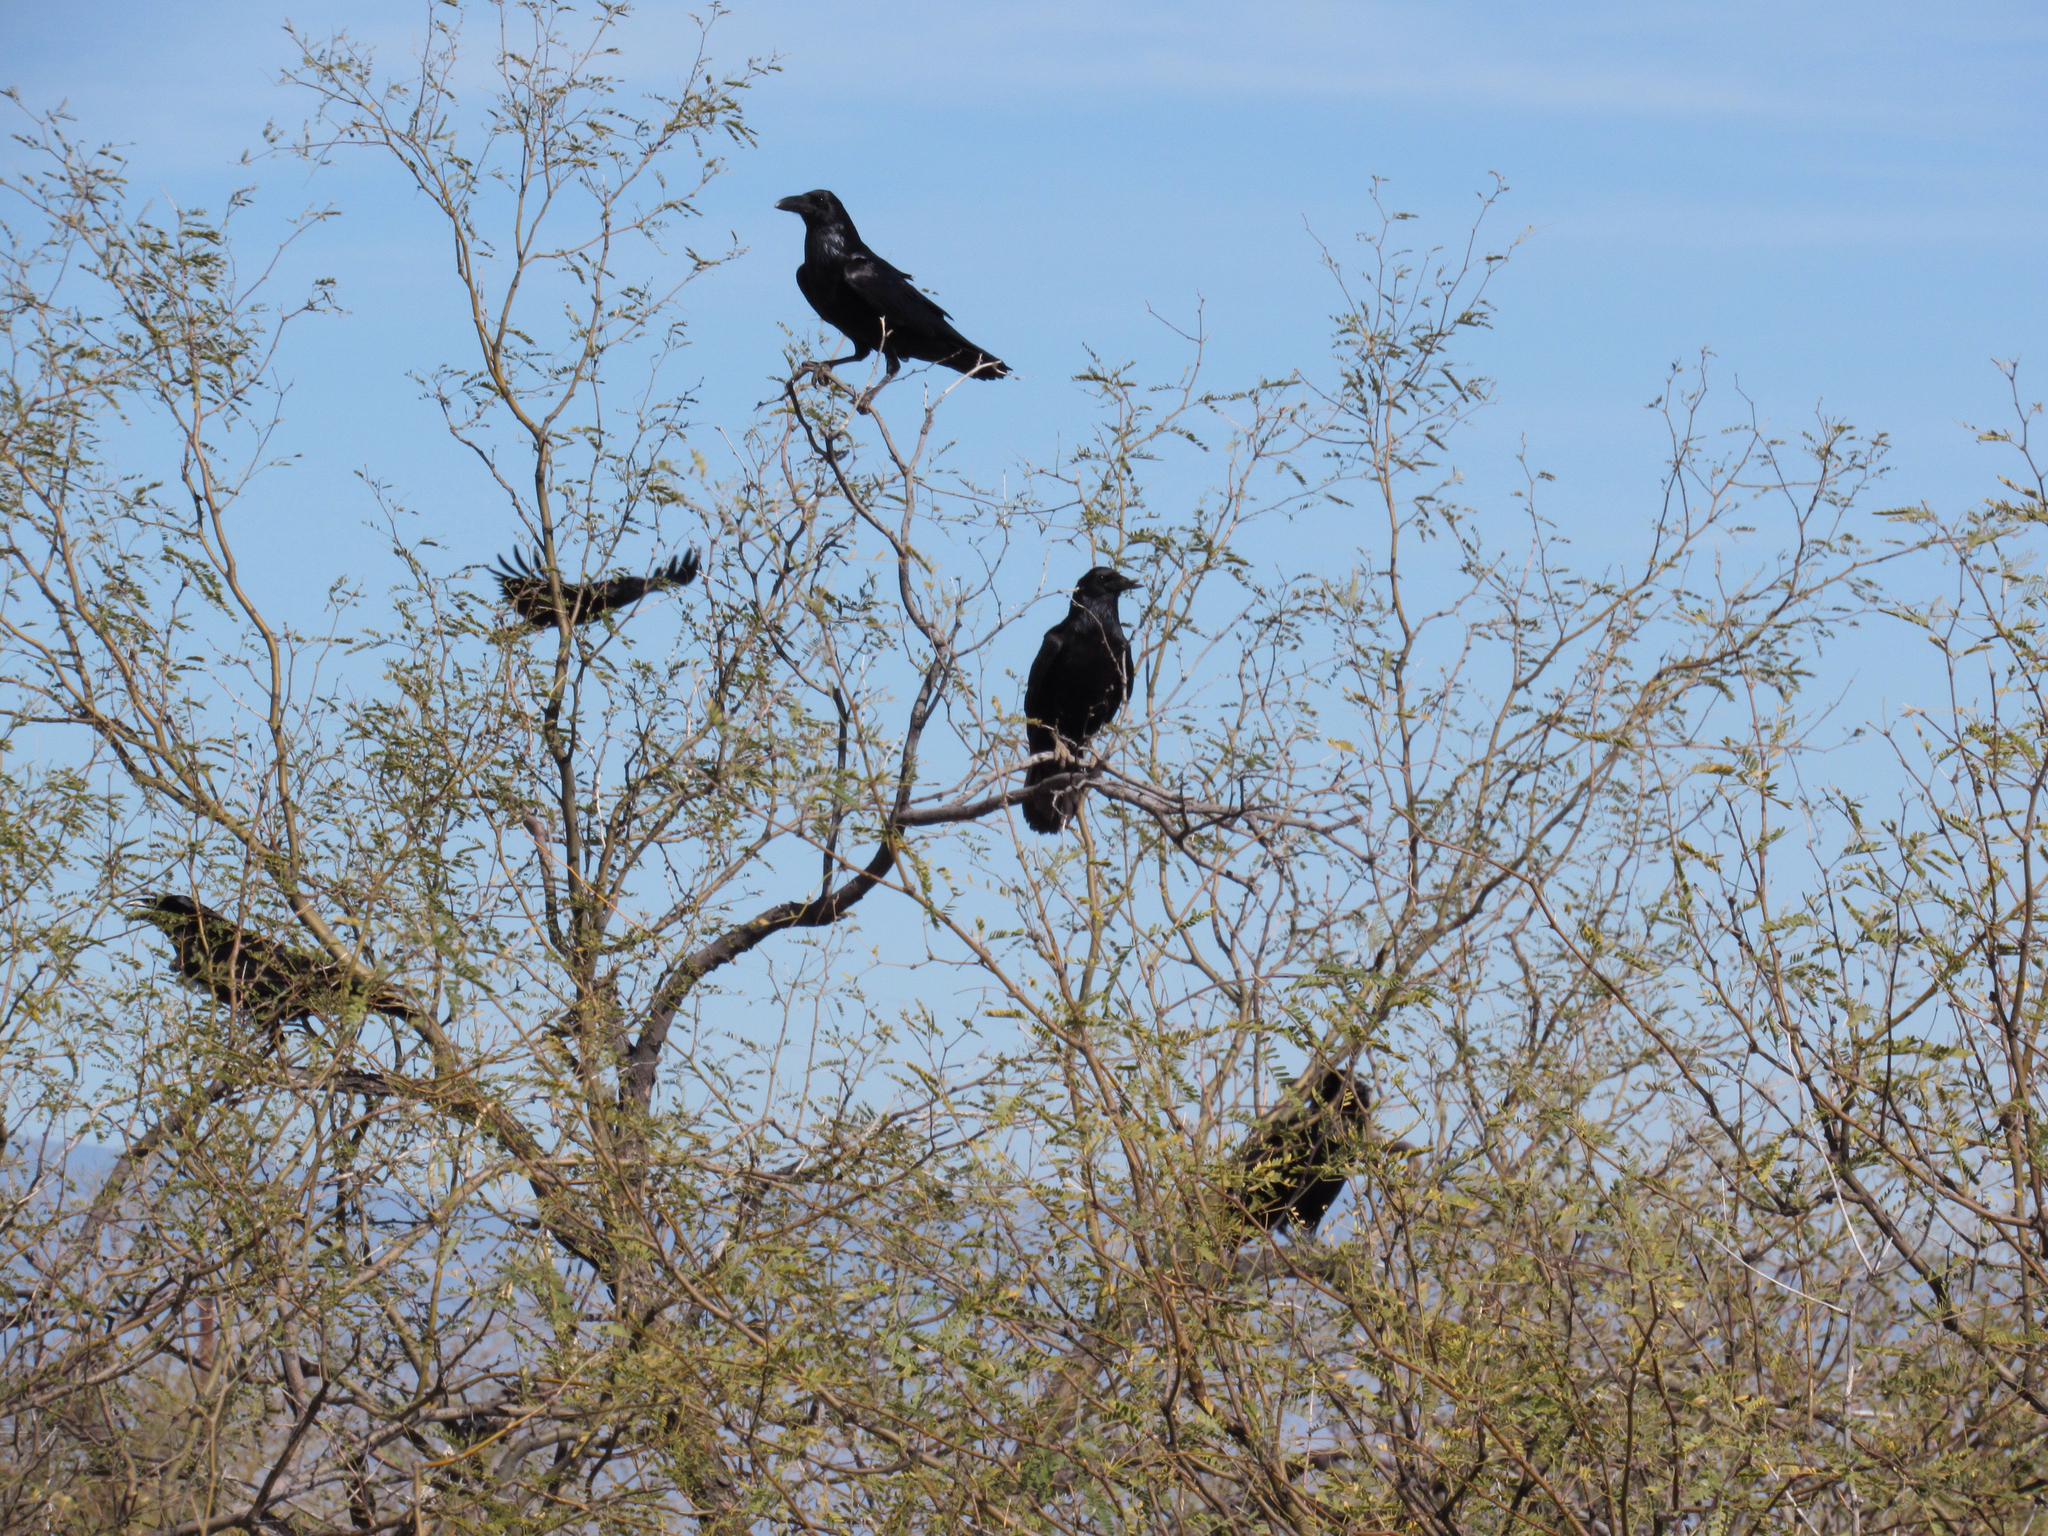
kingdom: Animalia
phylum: Chordata
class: Aves
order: Passeriformes
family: Corvidae
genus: Corvus
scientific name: Corvus corax
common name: Common raven
